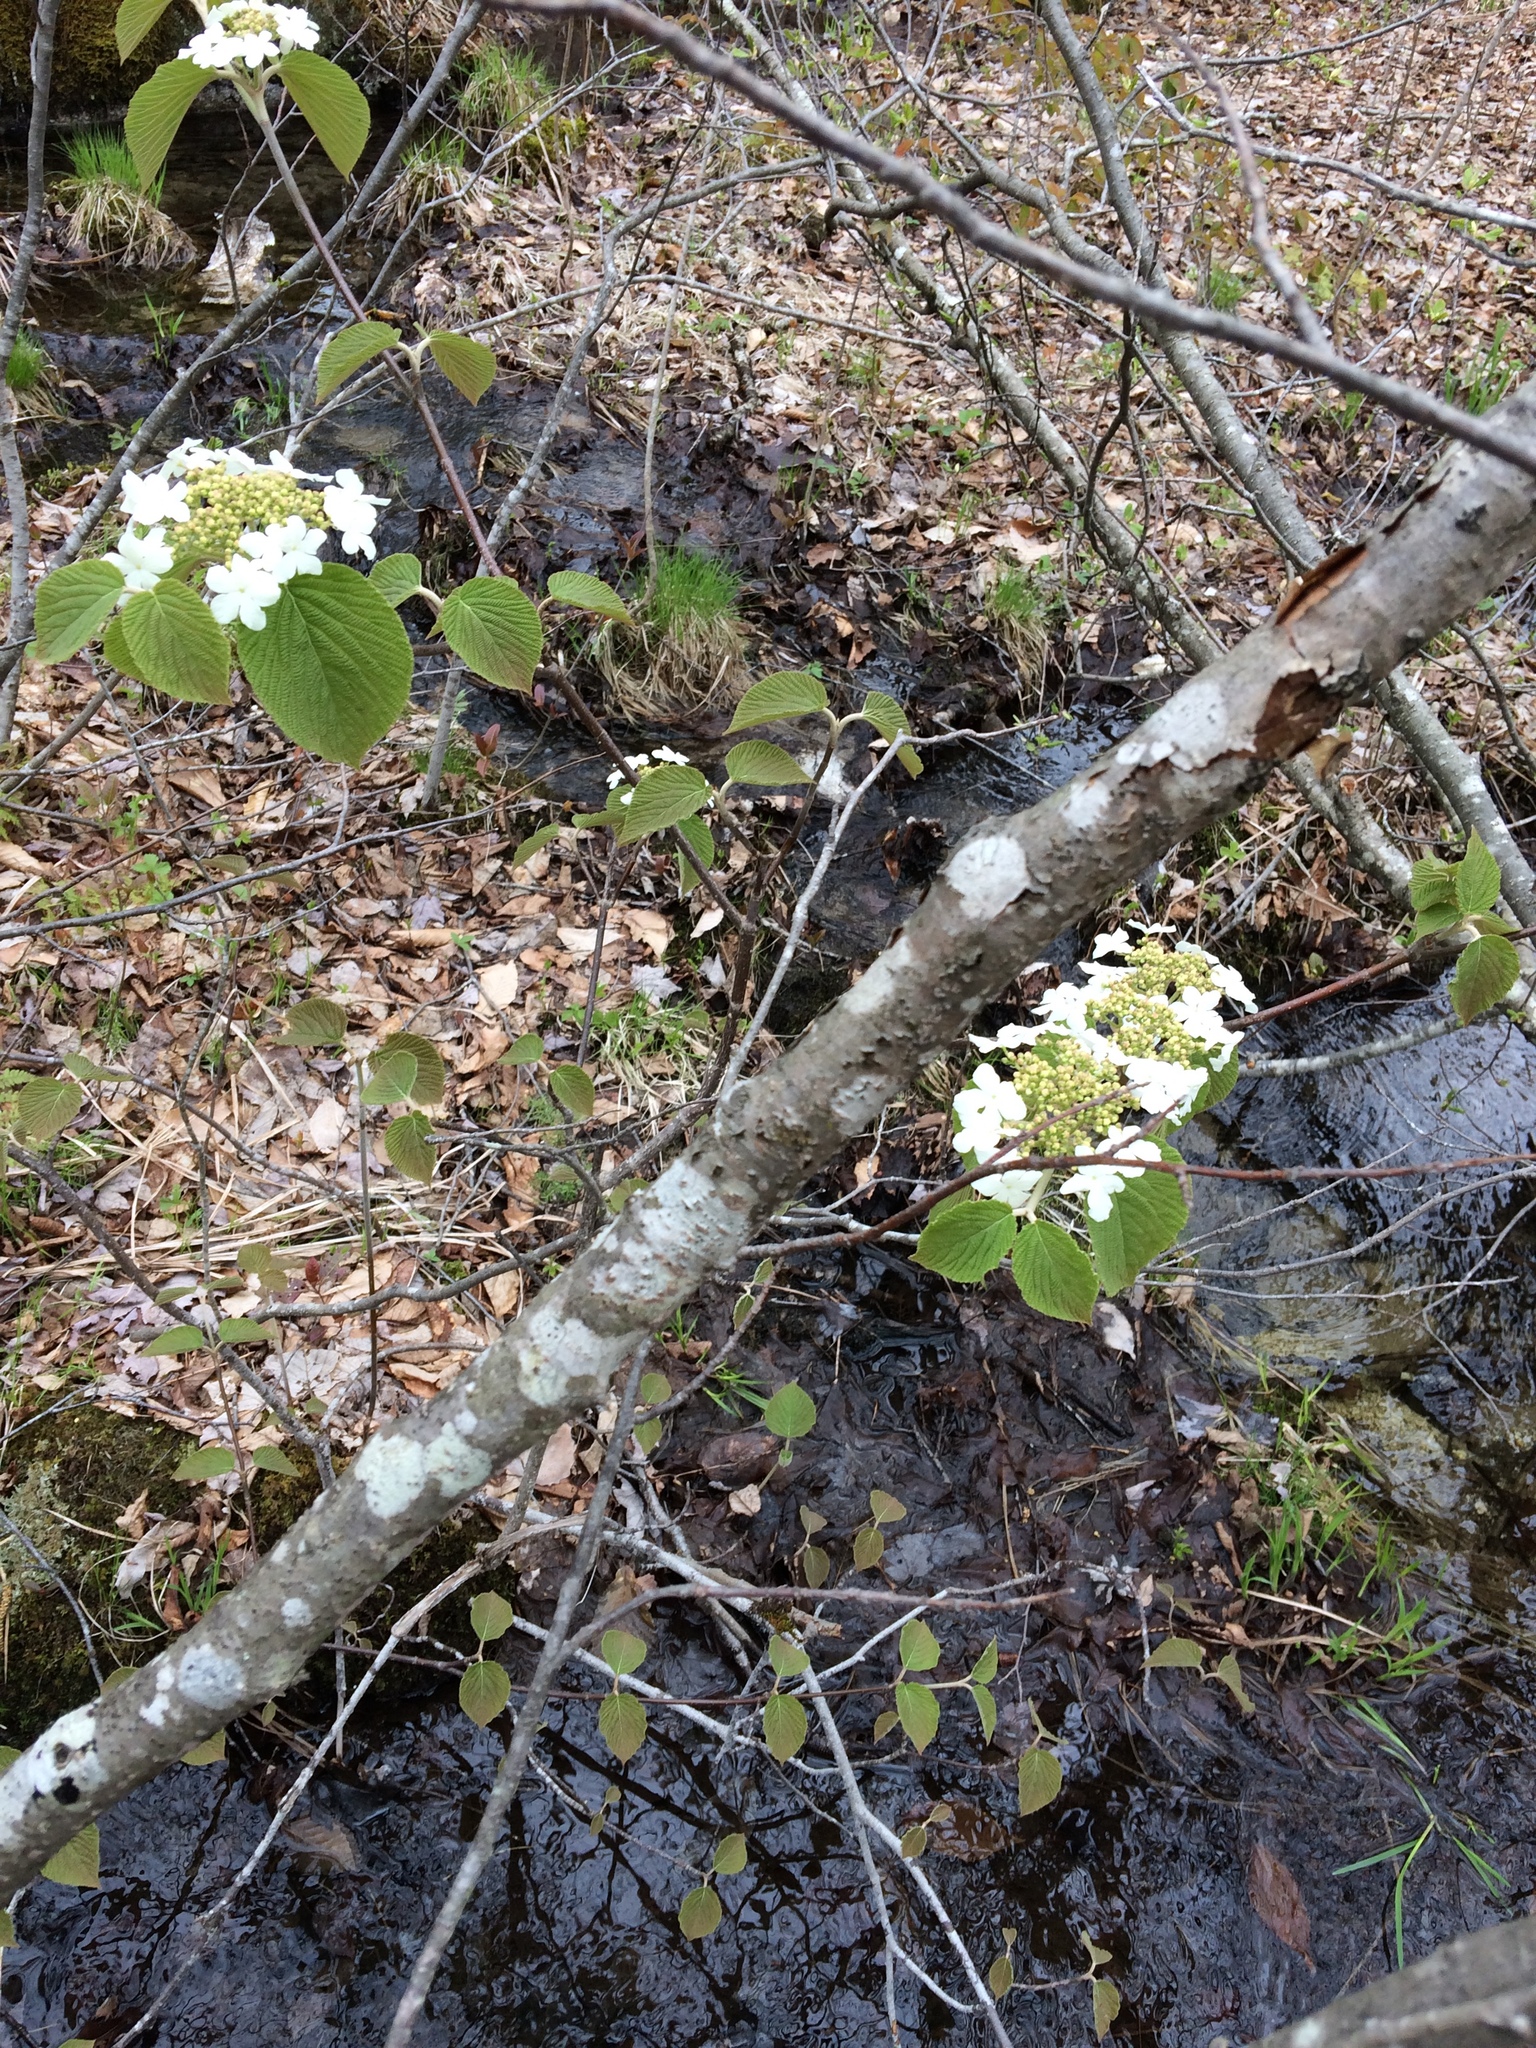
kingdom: Plantae
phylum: Tracheophyta
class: Magnoliopsida
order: Dipsacales
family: Viburnaceae
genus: Viburnum
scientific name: Viburnum lantanoides
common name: Hobblebush
